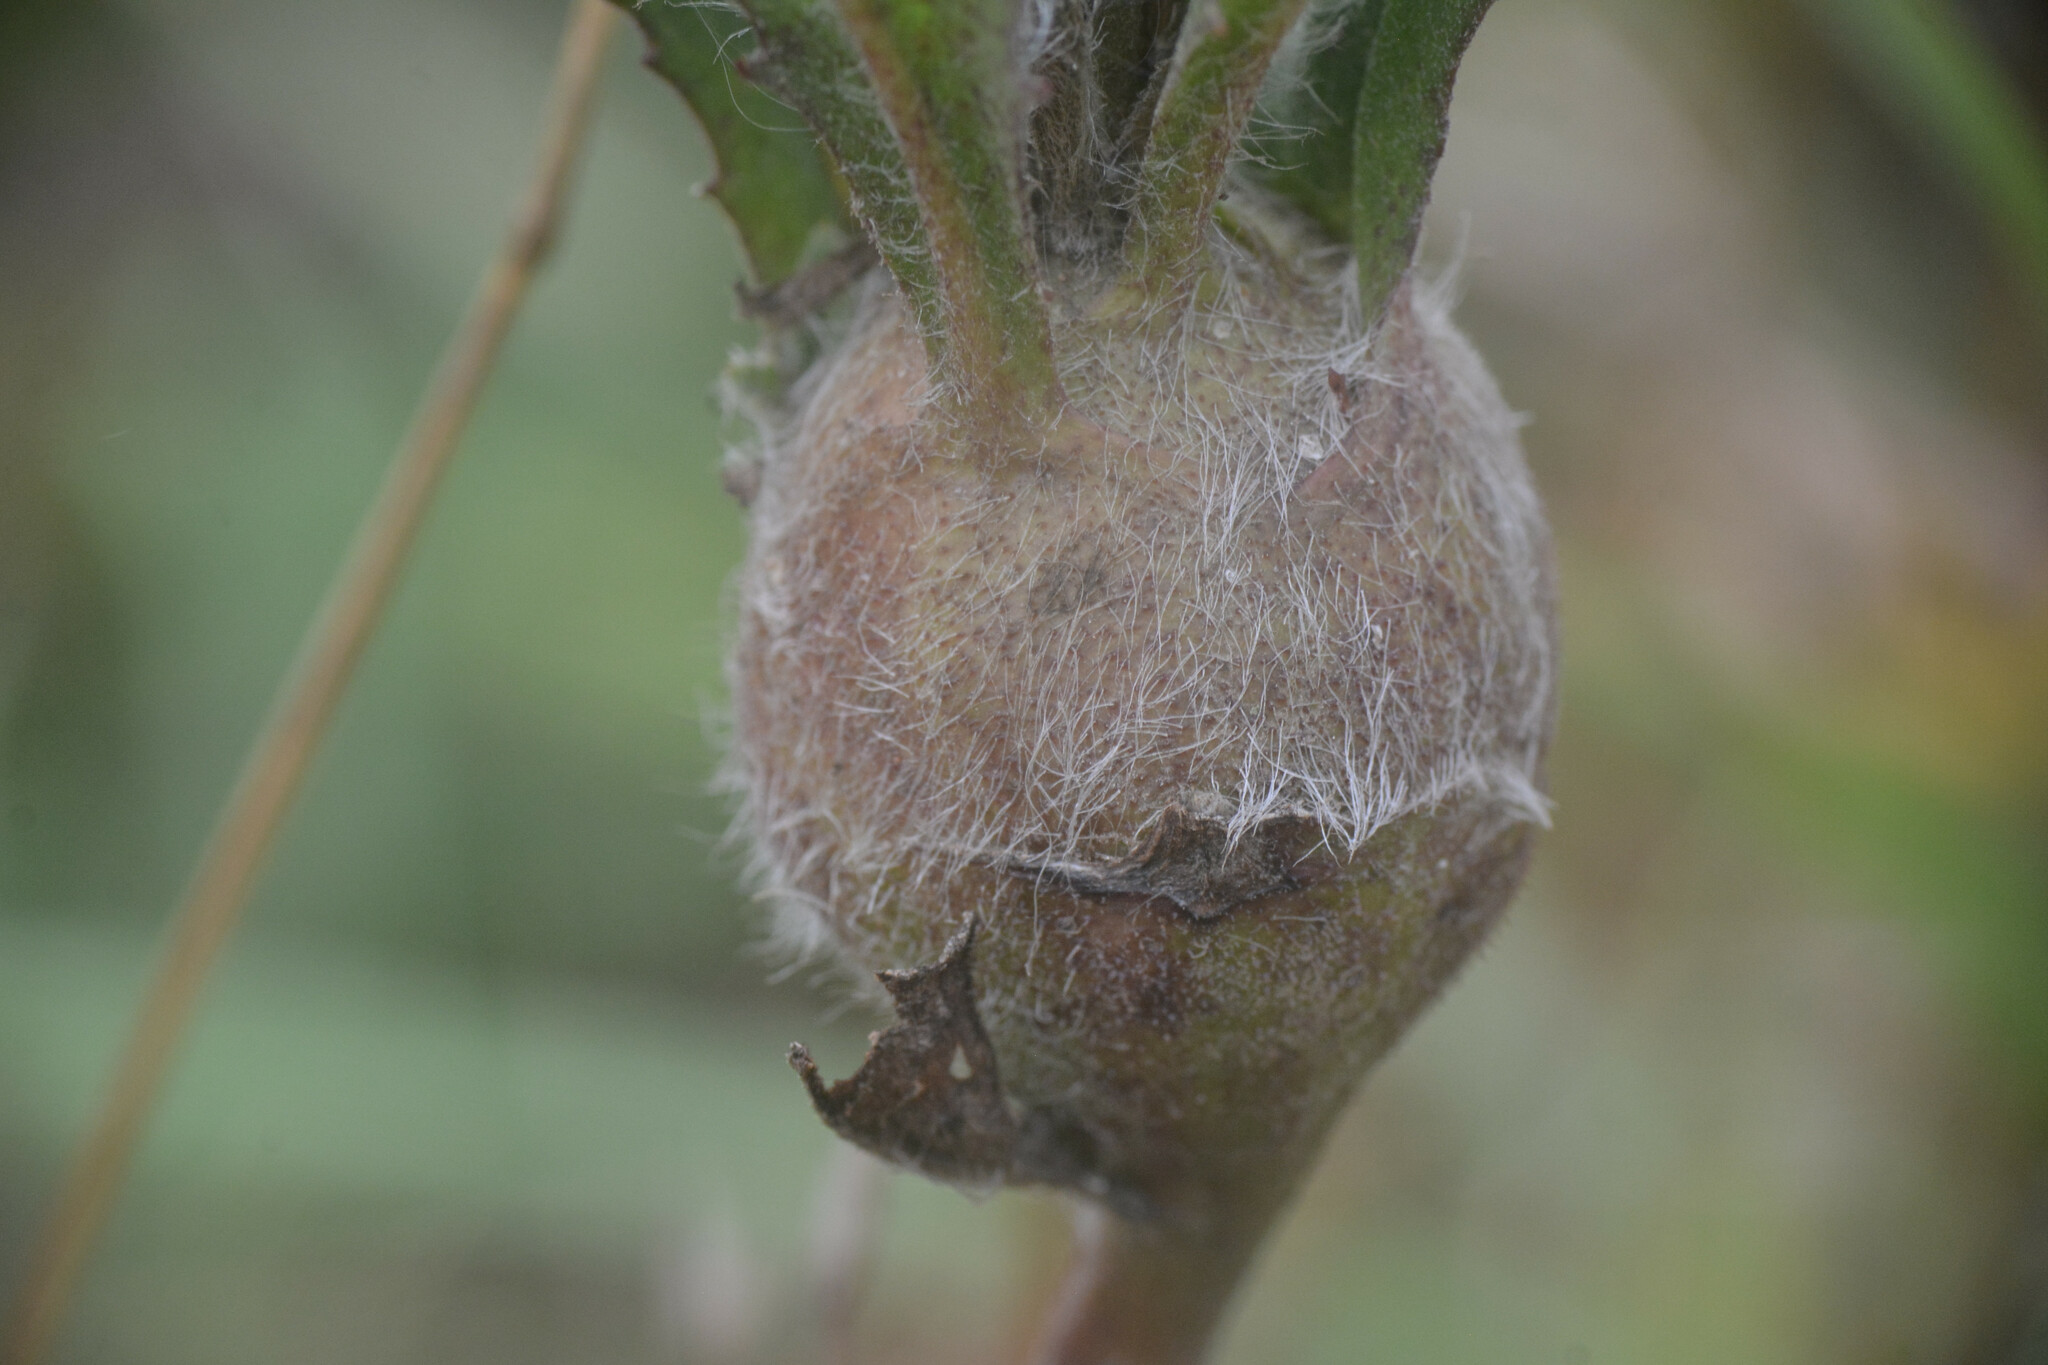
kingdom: Animalia
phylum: Arthropoda
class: Insecta
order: Hymenoptera
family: Cynipidae
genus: Aulacidea
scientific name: Aulacidea hieracii
